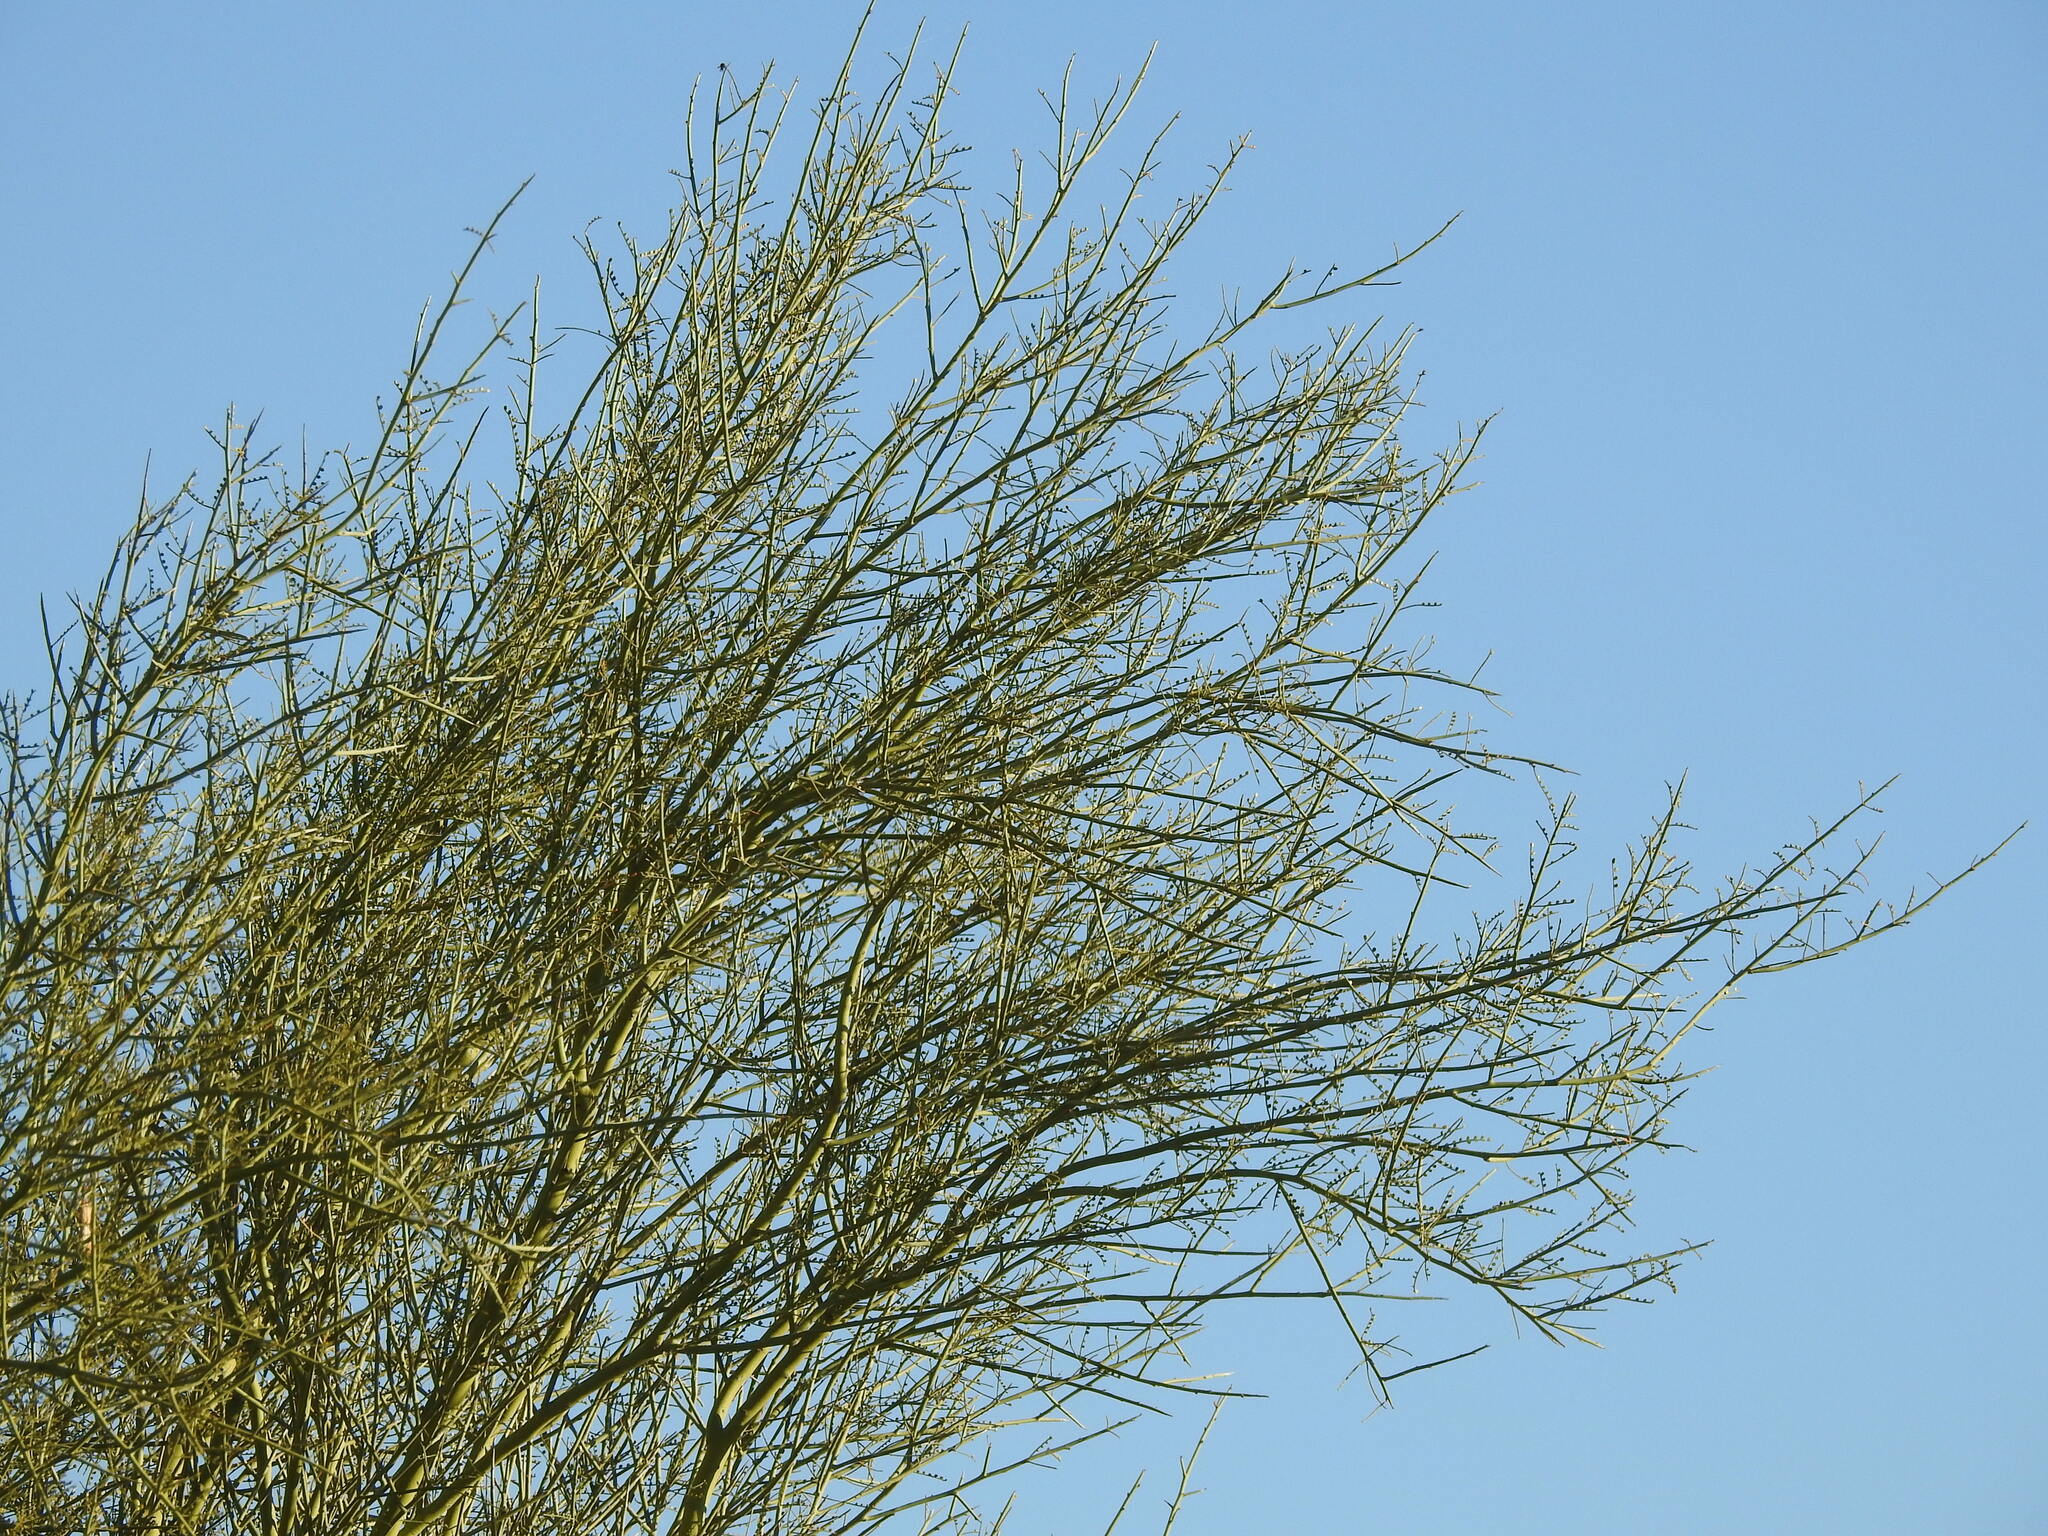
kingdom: Plantae
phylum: Tracheophyta
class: Magnoliopsida
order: Fabales
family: Fabaceae
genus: Parkinsonia
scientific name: Parkinsonia microphylla
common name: Yellow paloverde
